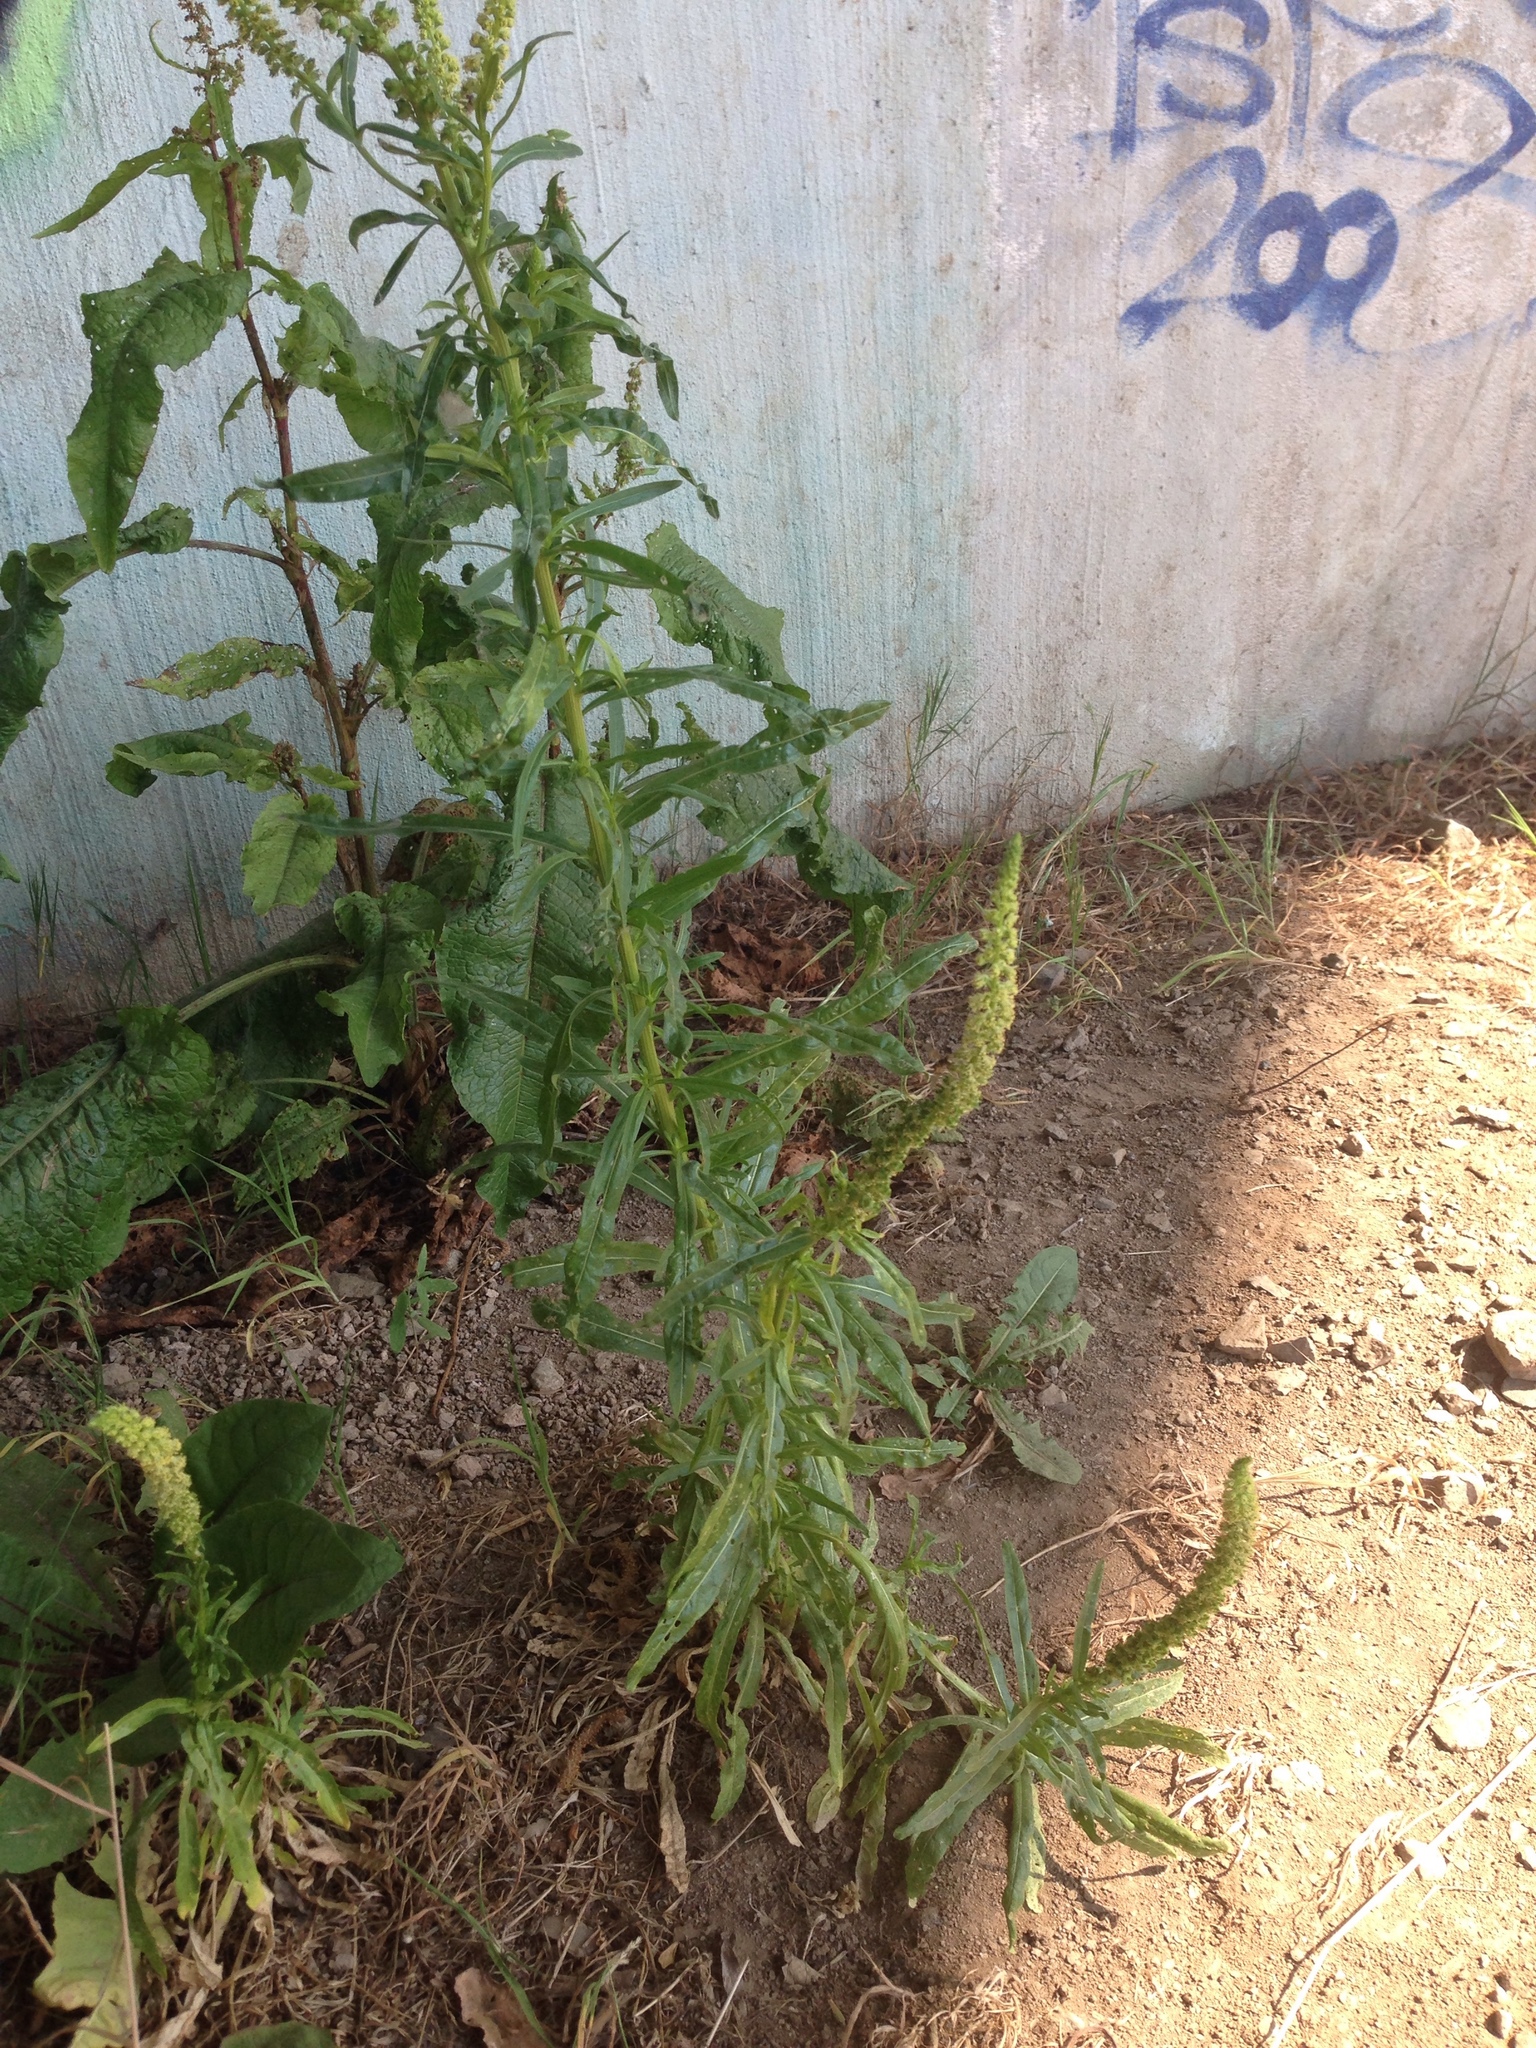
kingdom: Plantae
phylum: Tracheophyta
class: Magnoliopsida
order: Brassicales
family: Resedaceae
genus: Reseda
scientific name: Reseda luteola
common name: Weld
